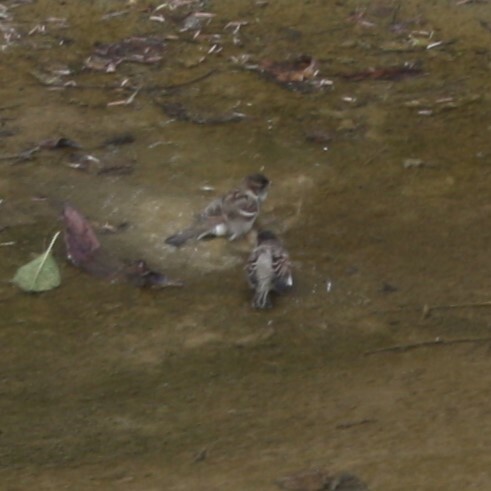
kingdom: Animalia
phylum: Chordata
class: Aves
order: Passeriformes
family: Passeridae
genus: Passer
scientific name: Passer domesticus
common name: House sparrow
